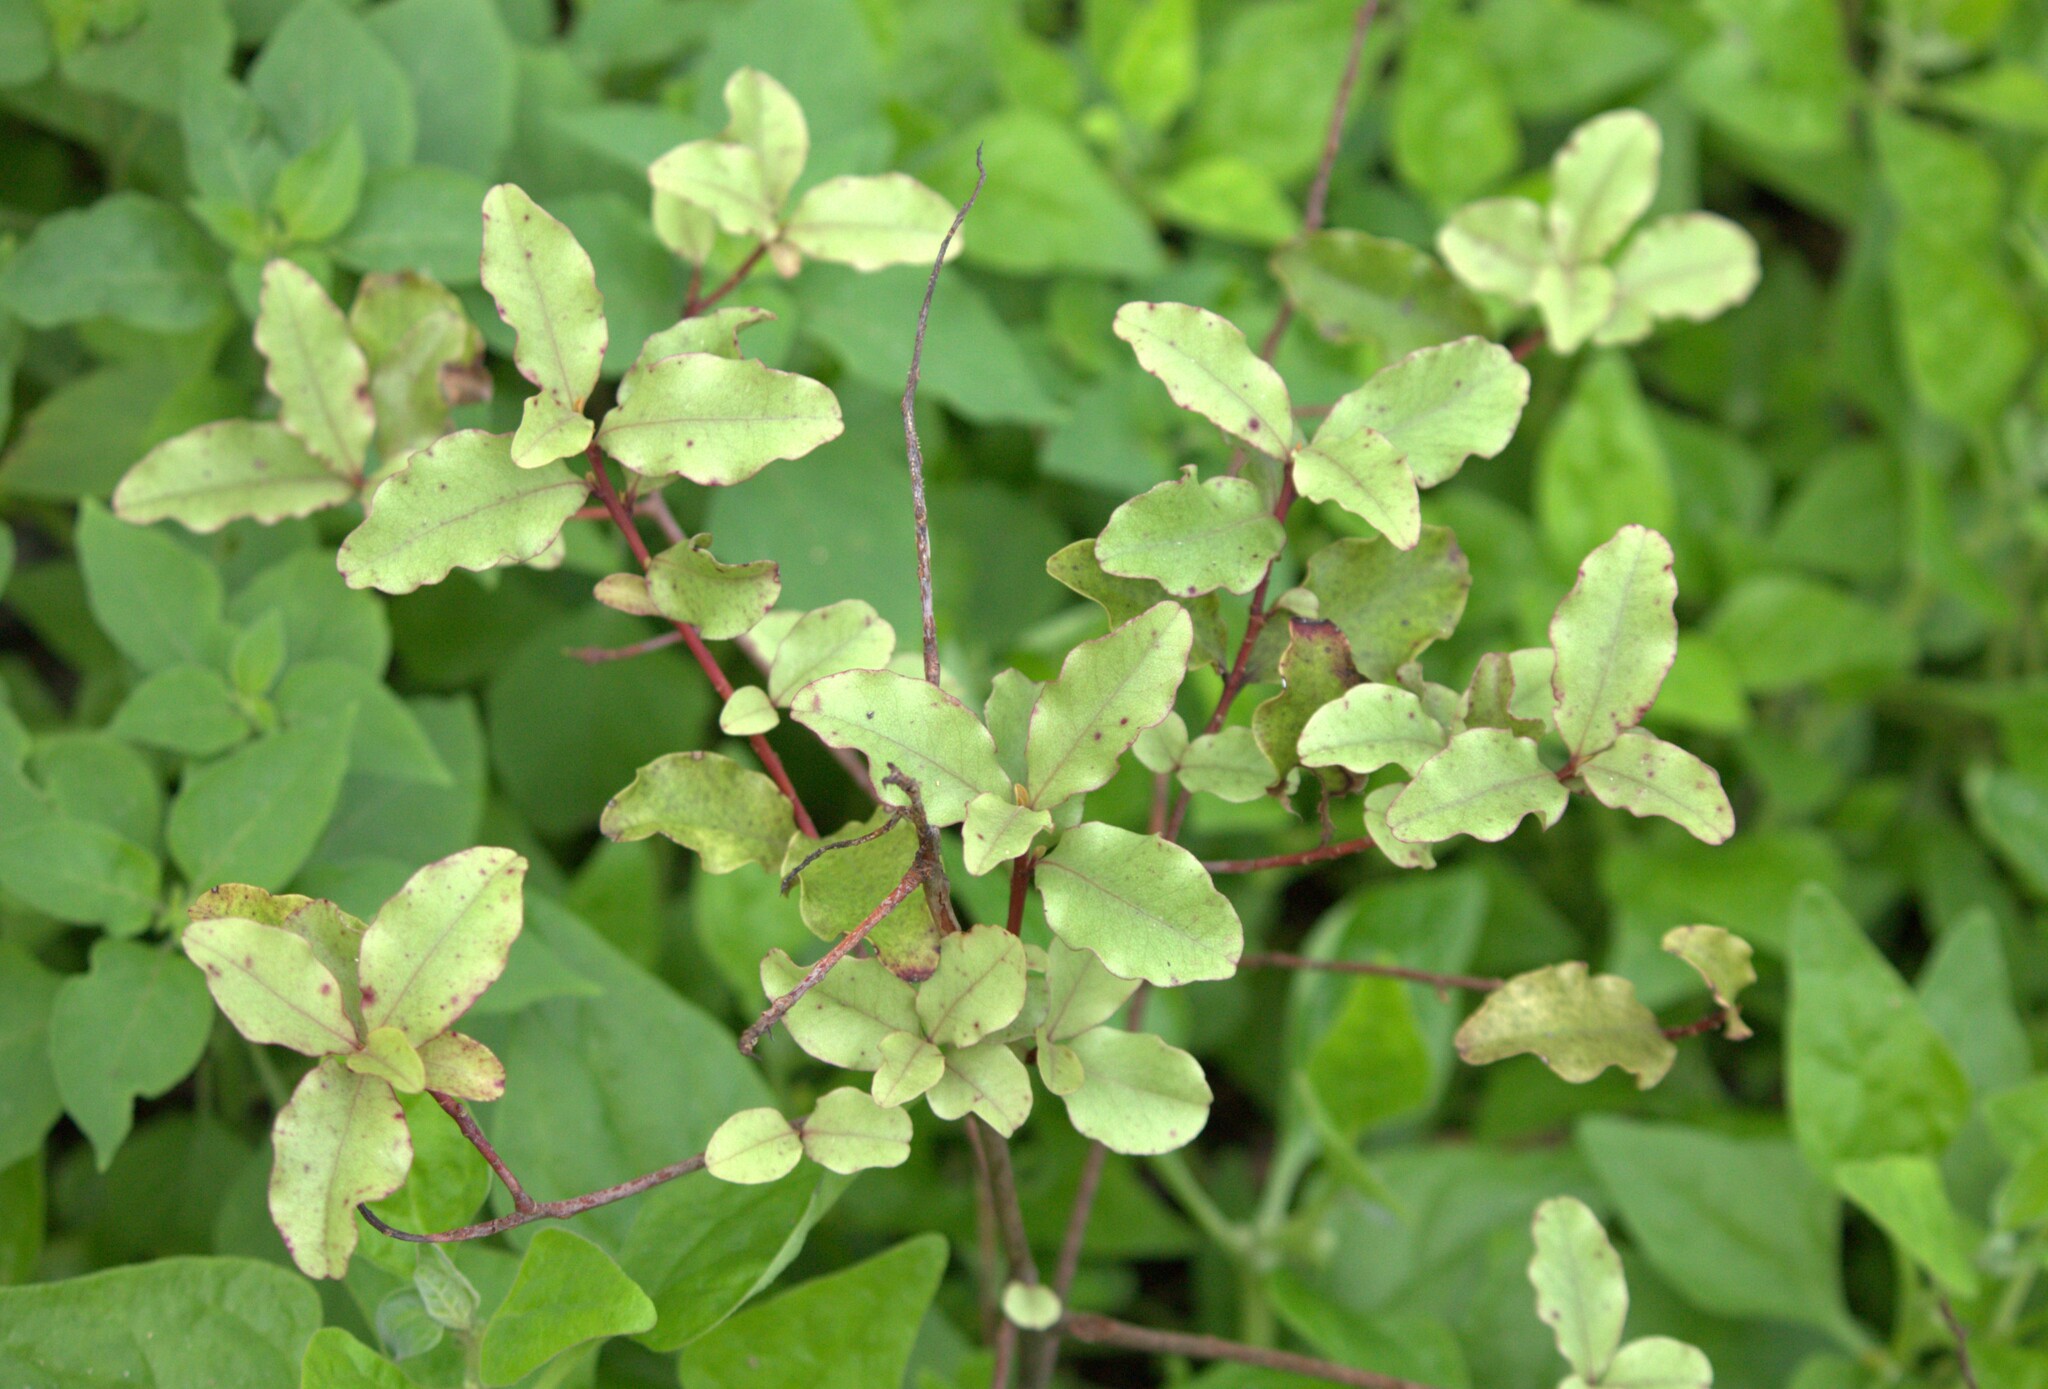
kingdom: Plantae
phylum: Tracheophyta
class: Magnoliopsida
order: Ericales
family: Primulaceae
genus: Myrsine
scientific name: Myrsine australis
